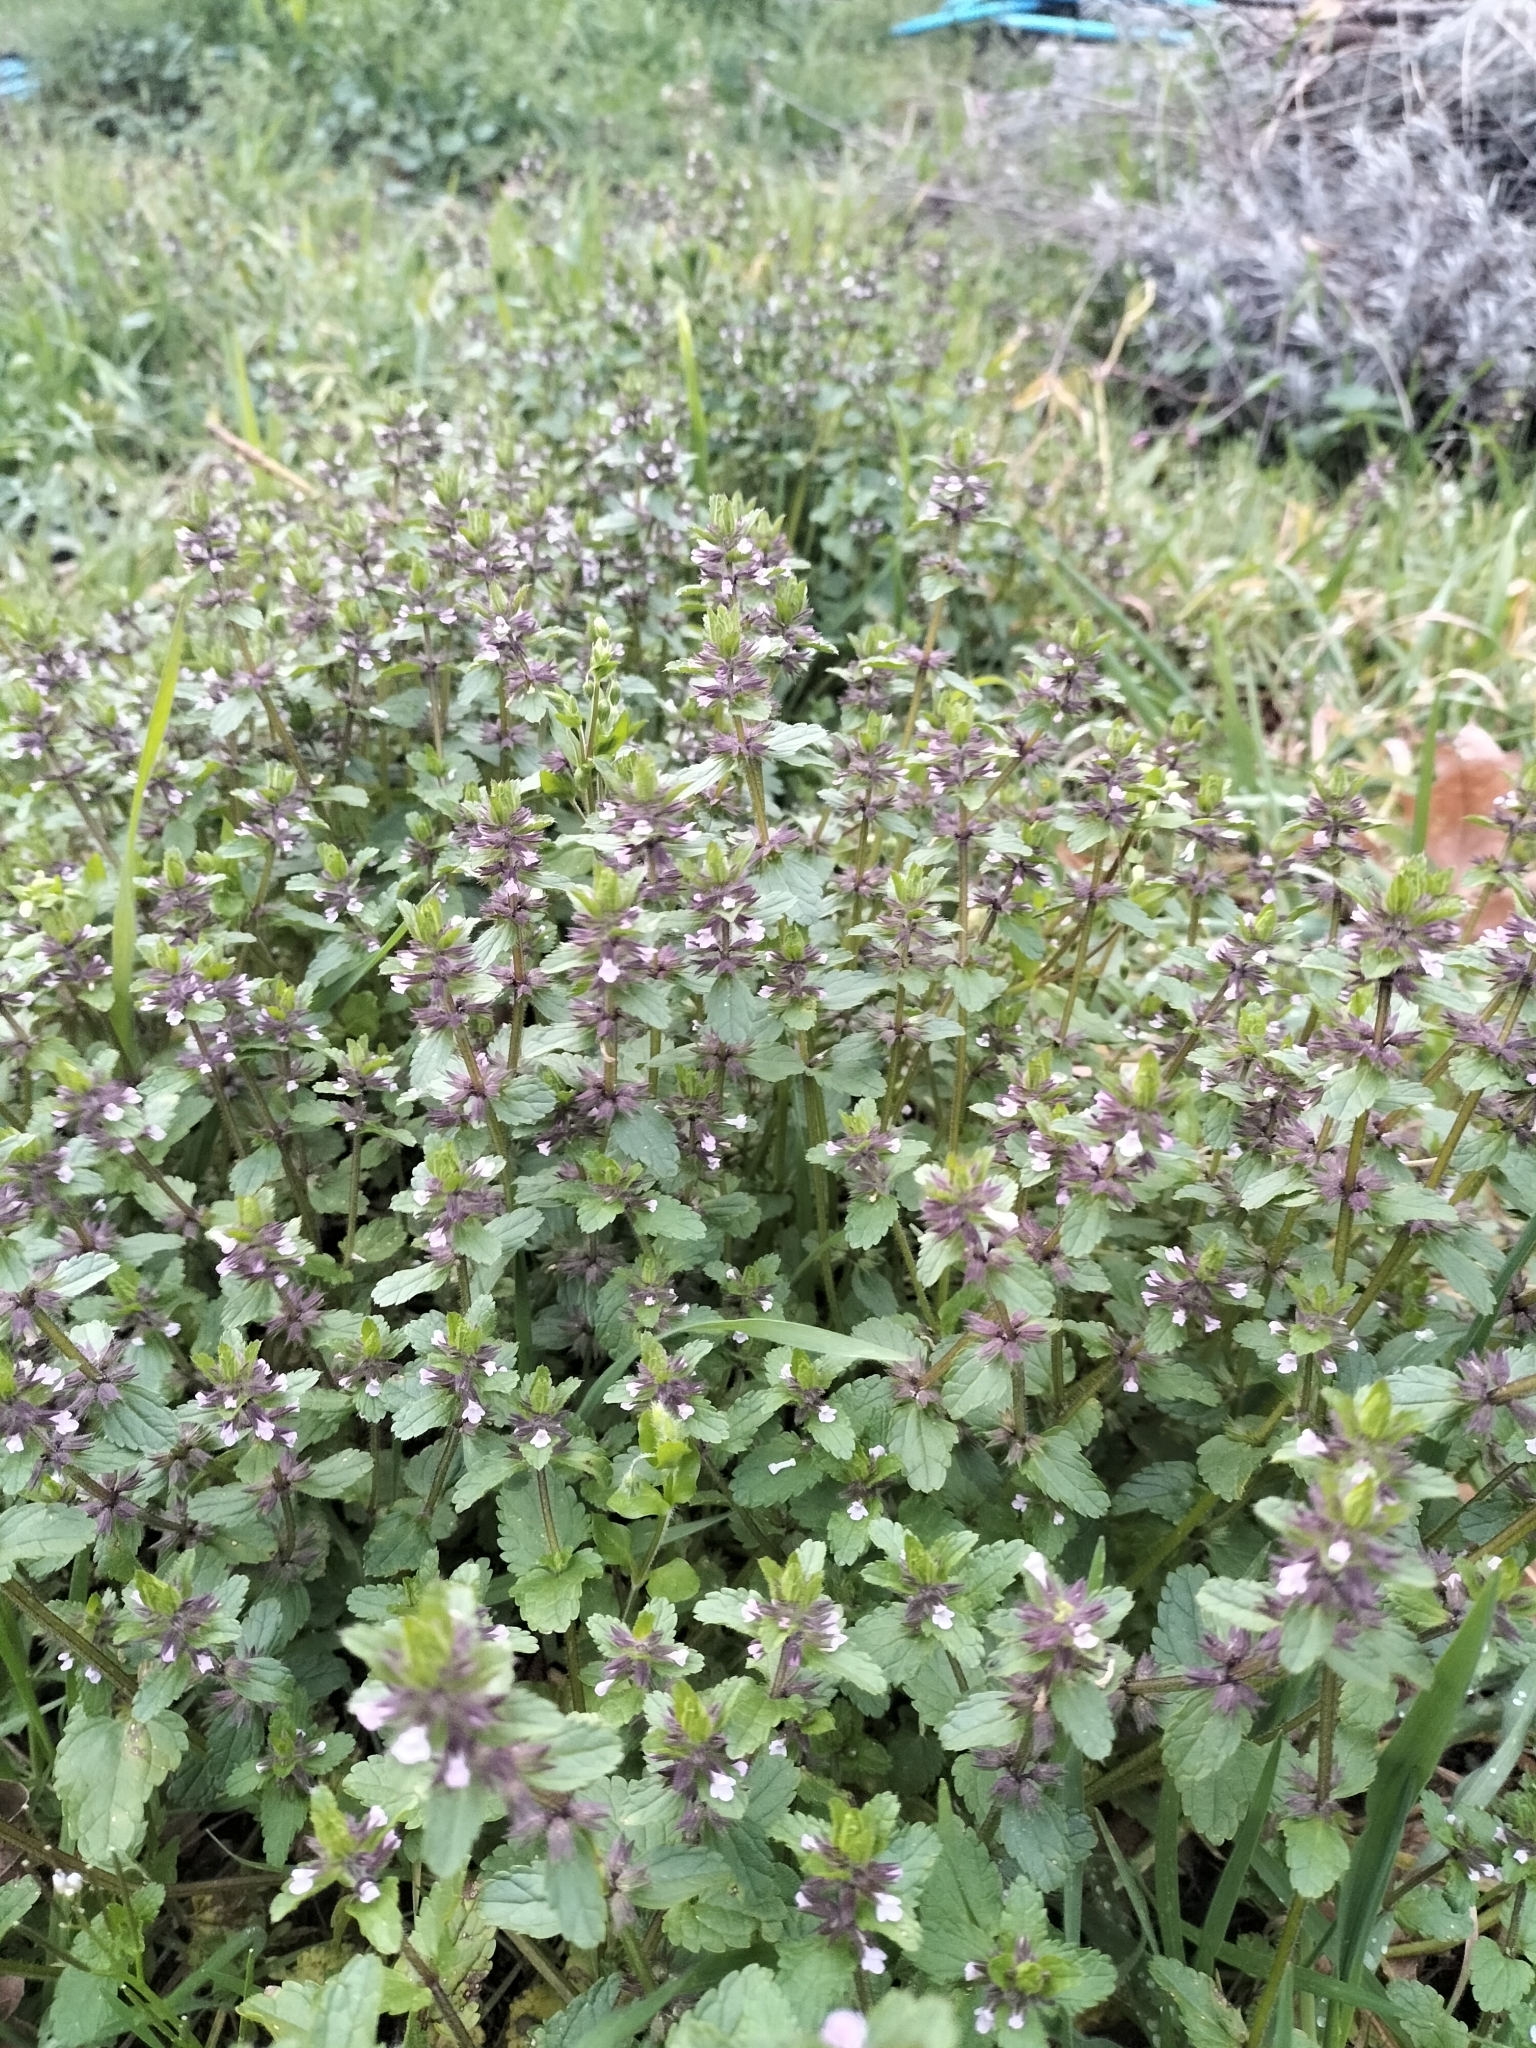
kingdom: Plantae
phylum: Tracheophyta
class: Magnoliopsida
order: Lamiales
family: Lamiaceae
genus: Stachys
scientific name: Stachys arvensis
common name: Field woundwort
